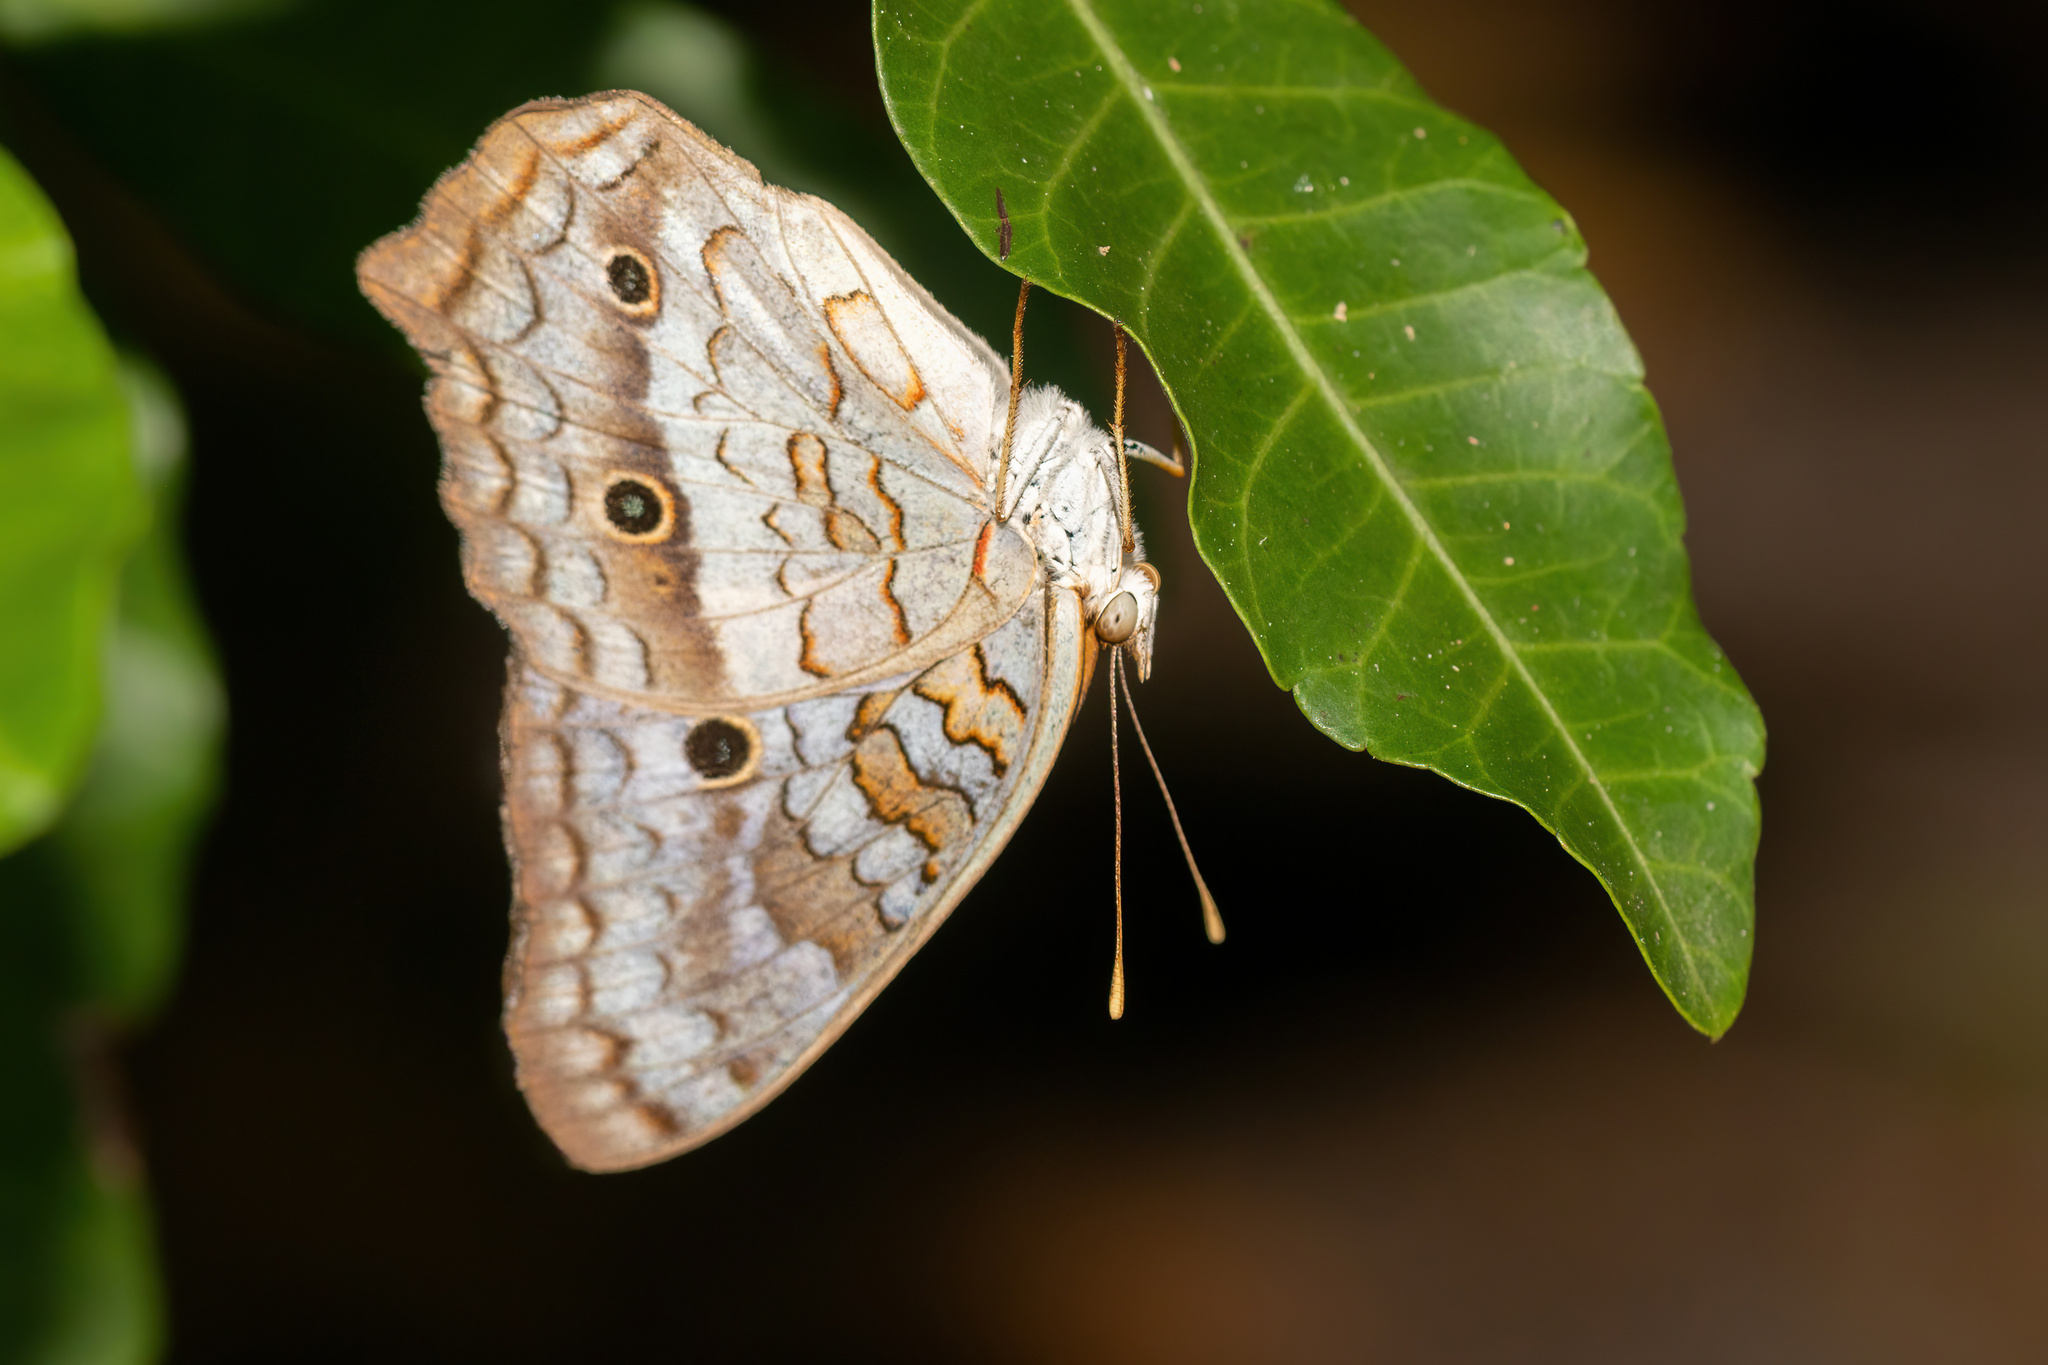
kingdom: Animalia
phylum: Arthropoda
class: Insecta
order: Lepidoptera
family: Nymphalidae
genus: Anartia
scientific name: Anartia jatrophae
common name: White peacock
